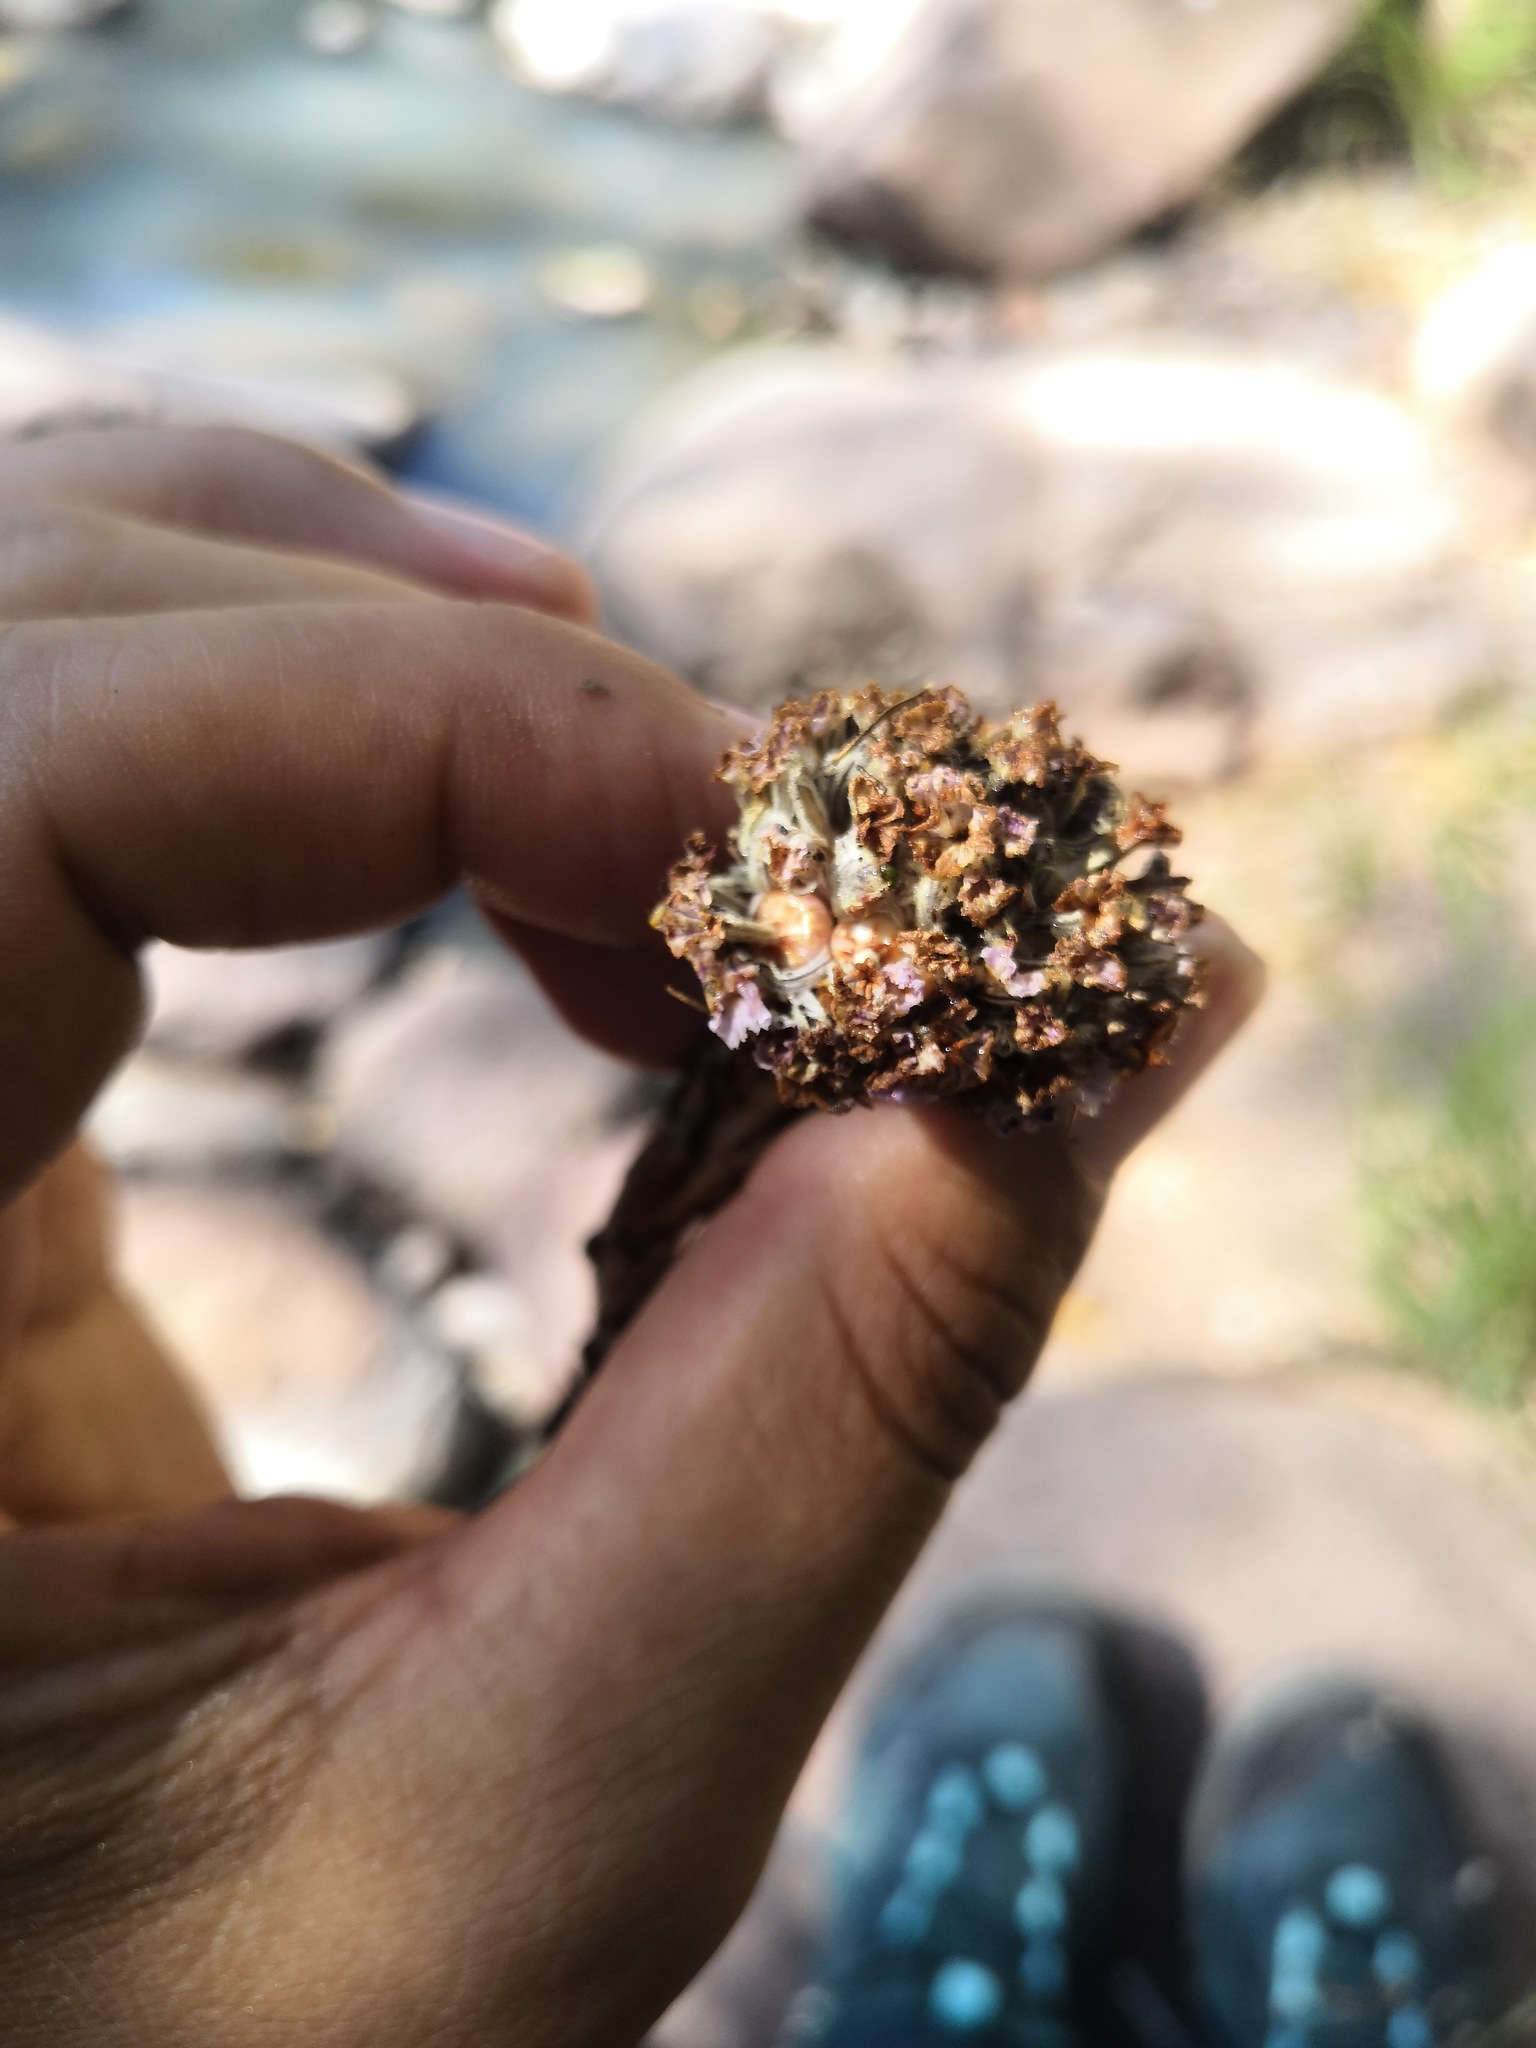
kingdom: Plantae
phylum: Tracheophyta
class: Magnoliopsida
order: Boraginales
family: Lennoaceae
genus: Lennoa
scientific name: Lennoa madreporoides
